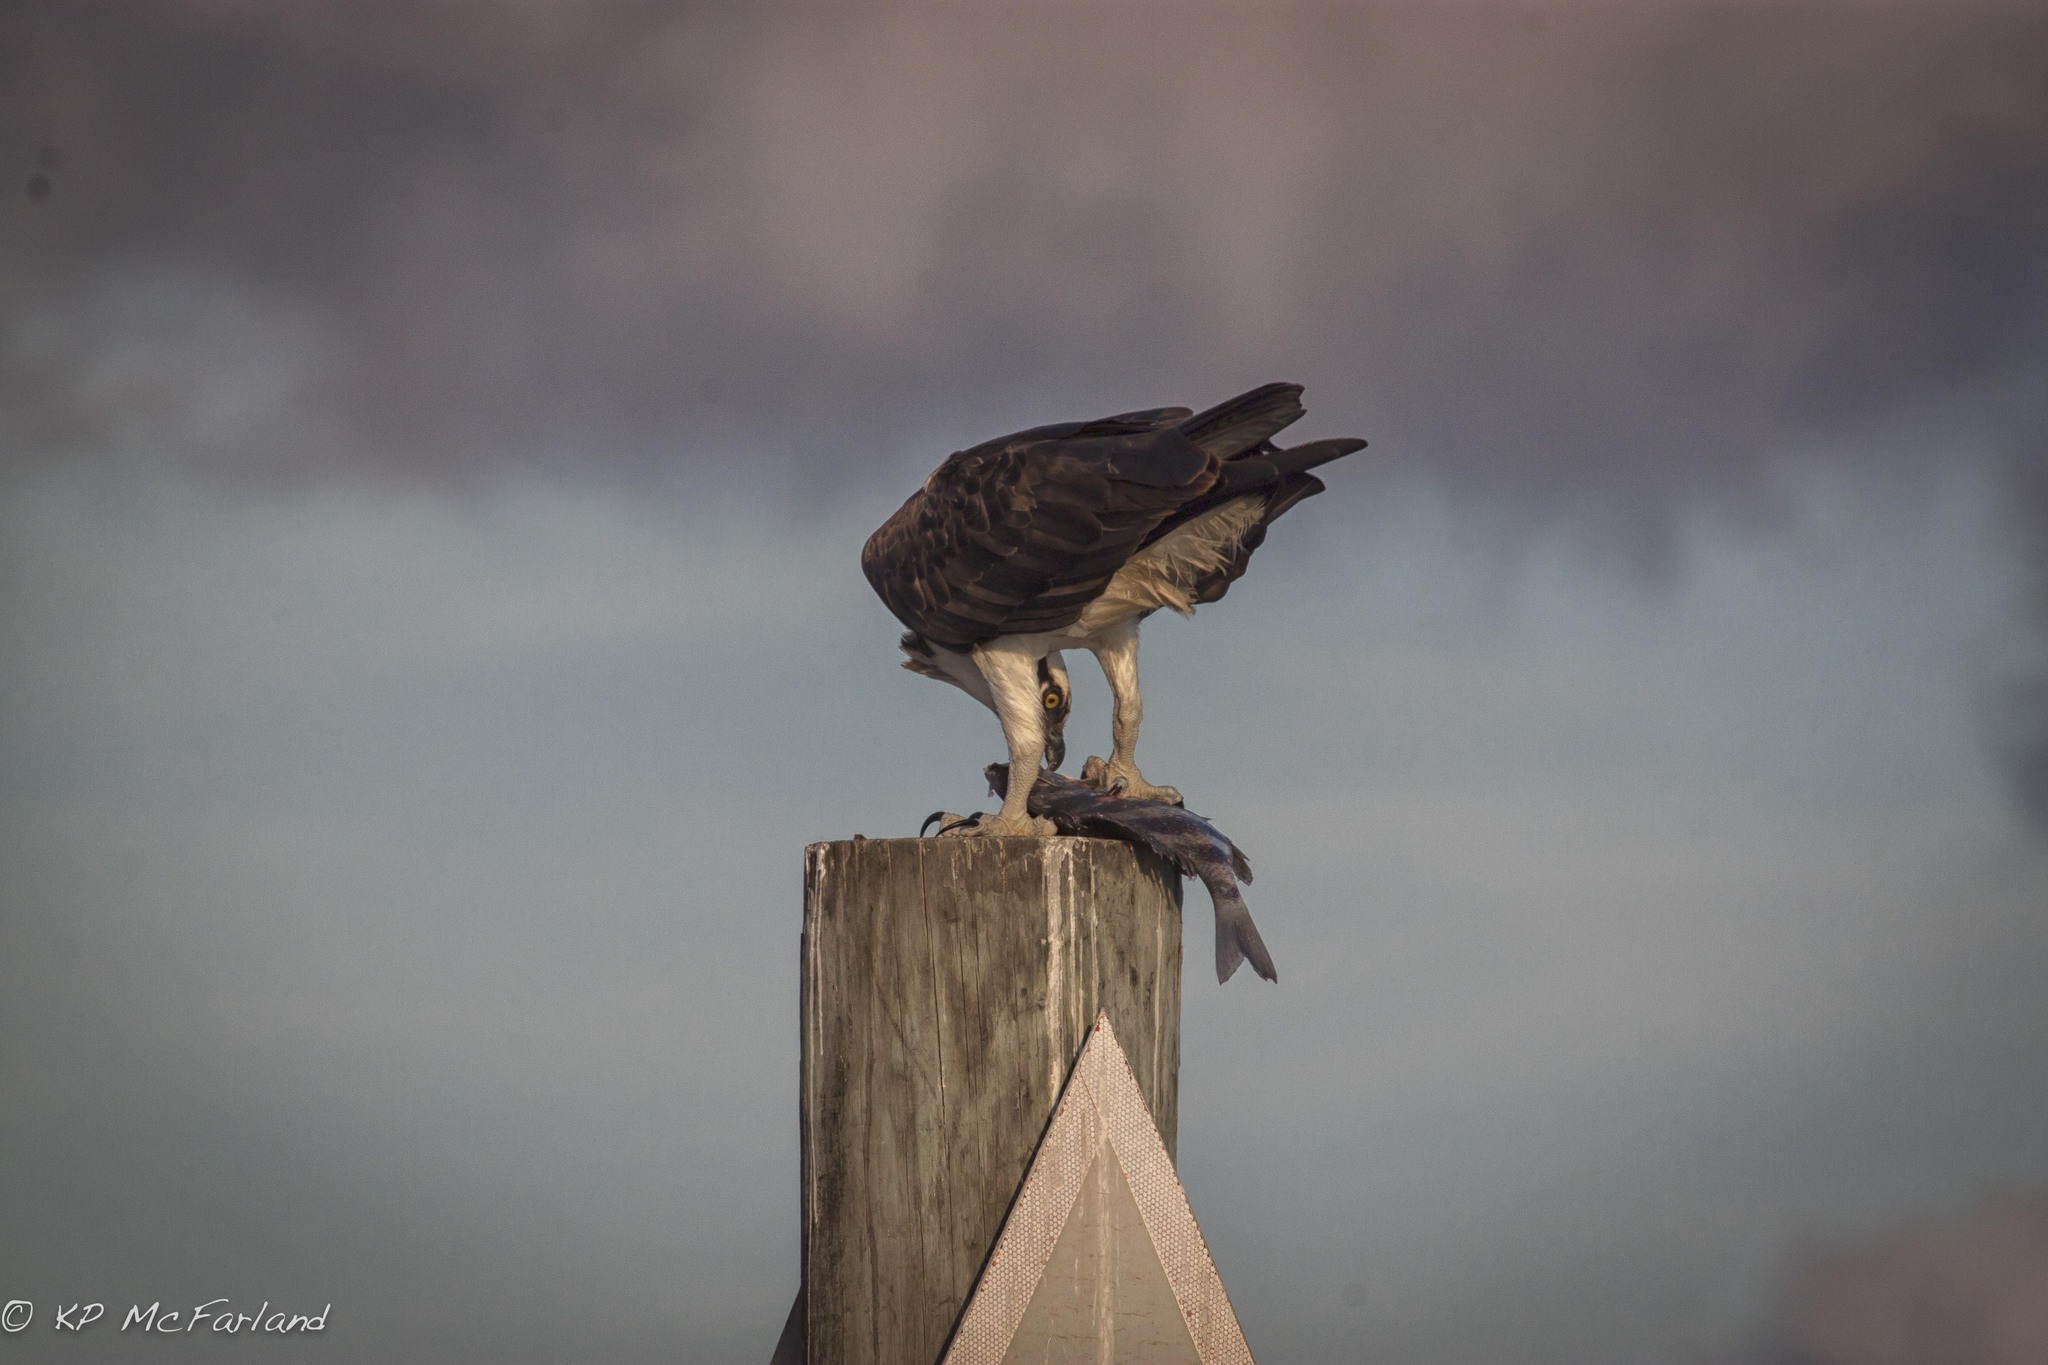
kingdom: Animalia
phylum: Chordata
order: Perciformes
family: Sparidae
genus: Archosargus
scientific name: Archosargus probatocephalus
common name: Sheepshead
